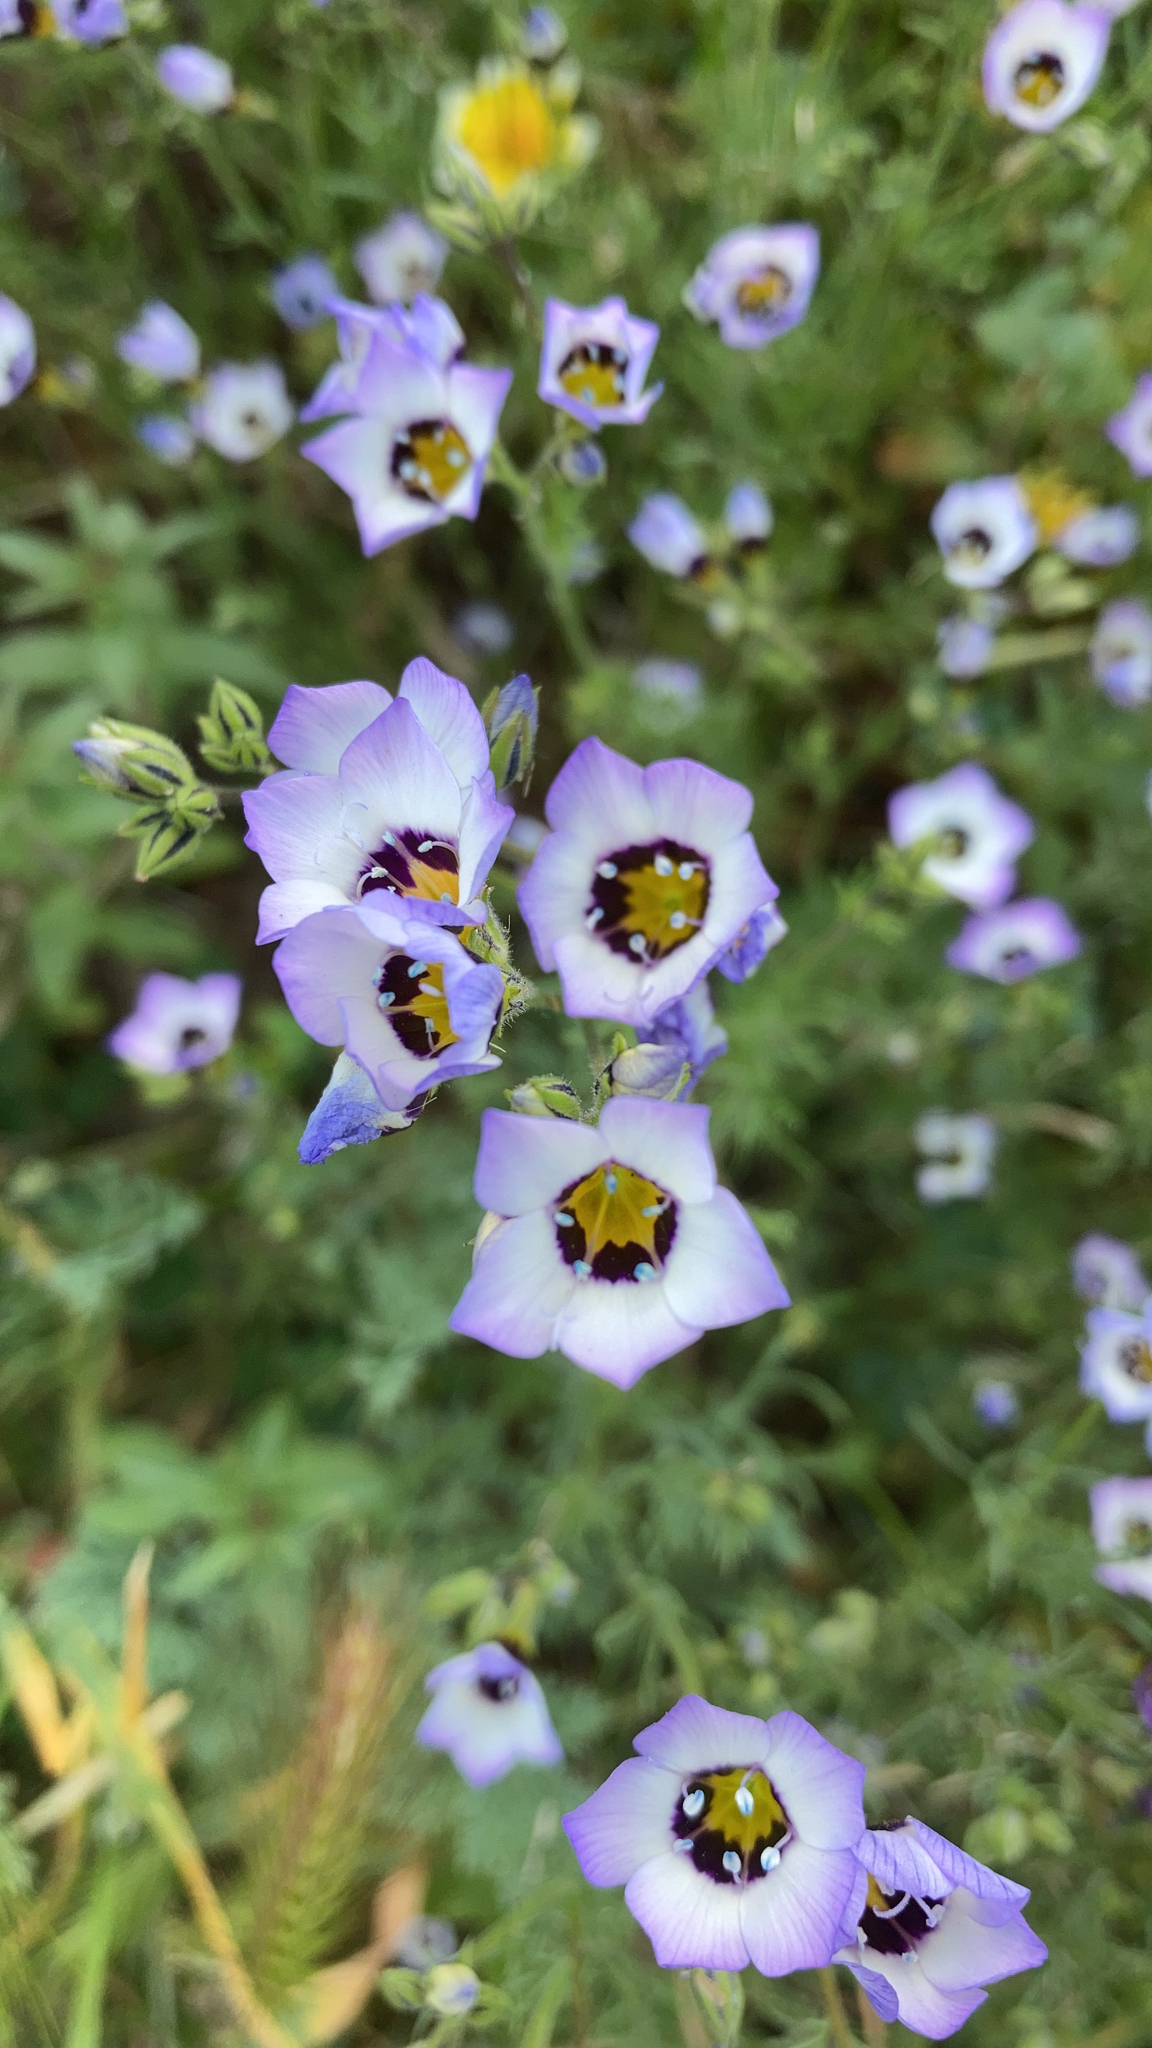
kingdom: Plantae
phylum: Tracheophyta
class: Magnoliopsida
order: Ericales
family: Polemoniaceae
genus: Gilia
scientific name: Gilia tricolor
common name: Bird's-eyes
